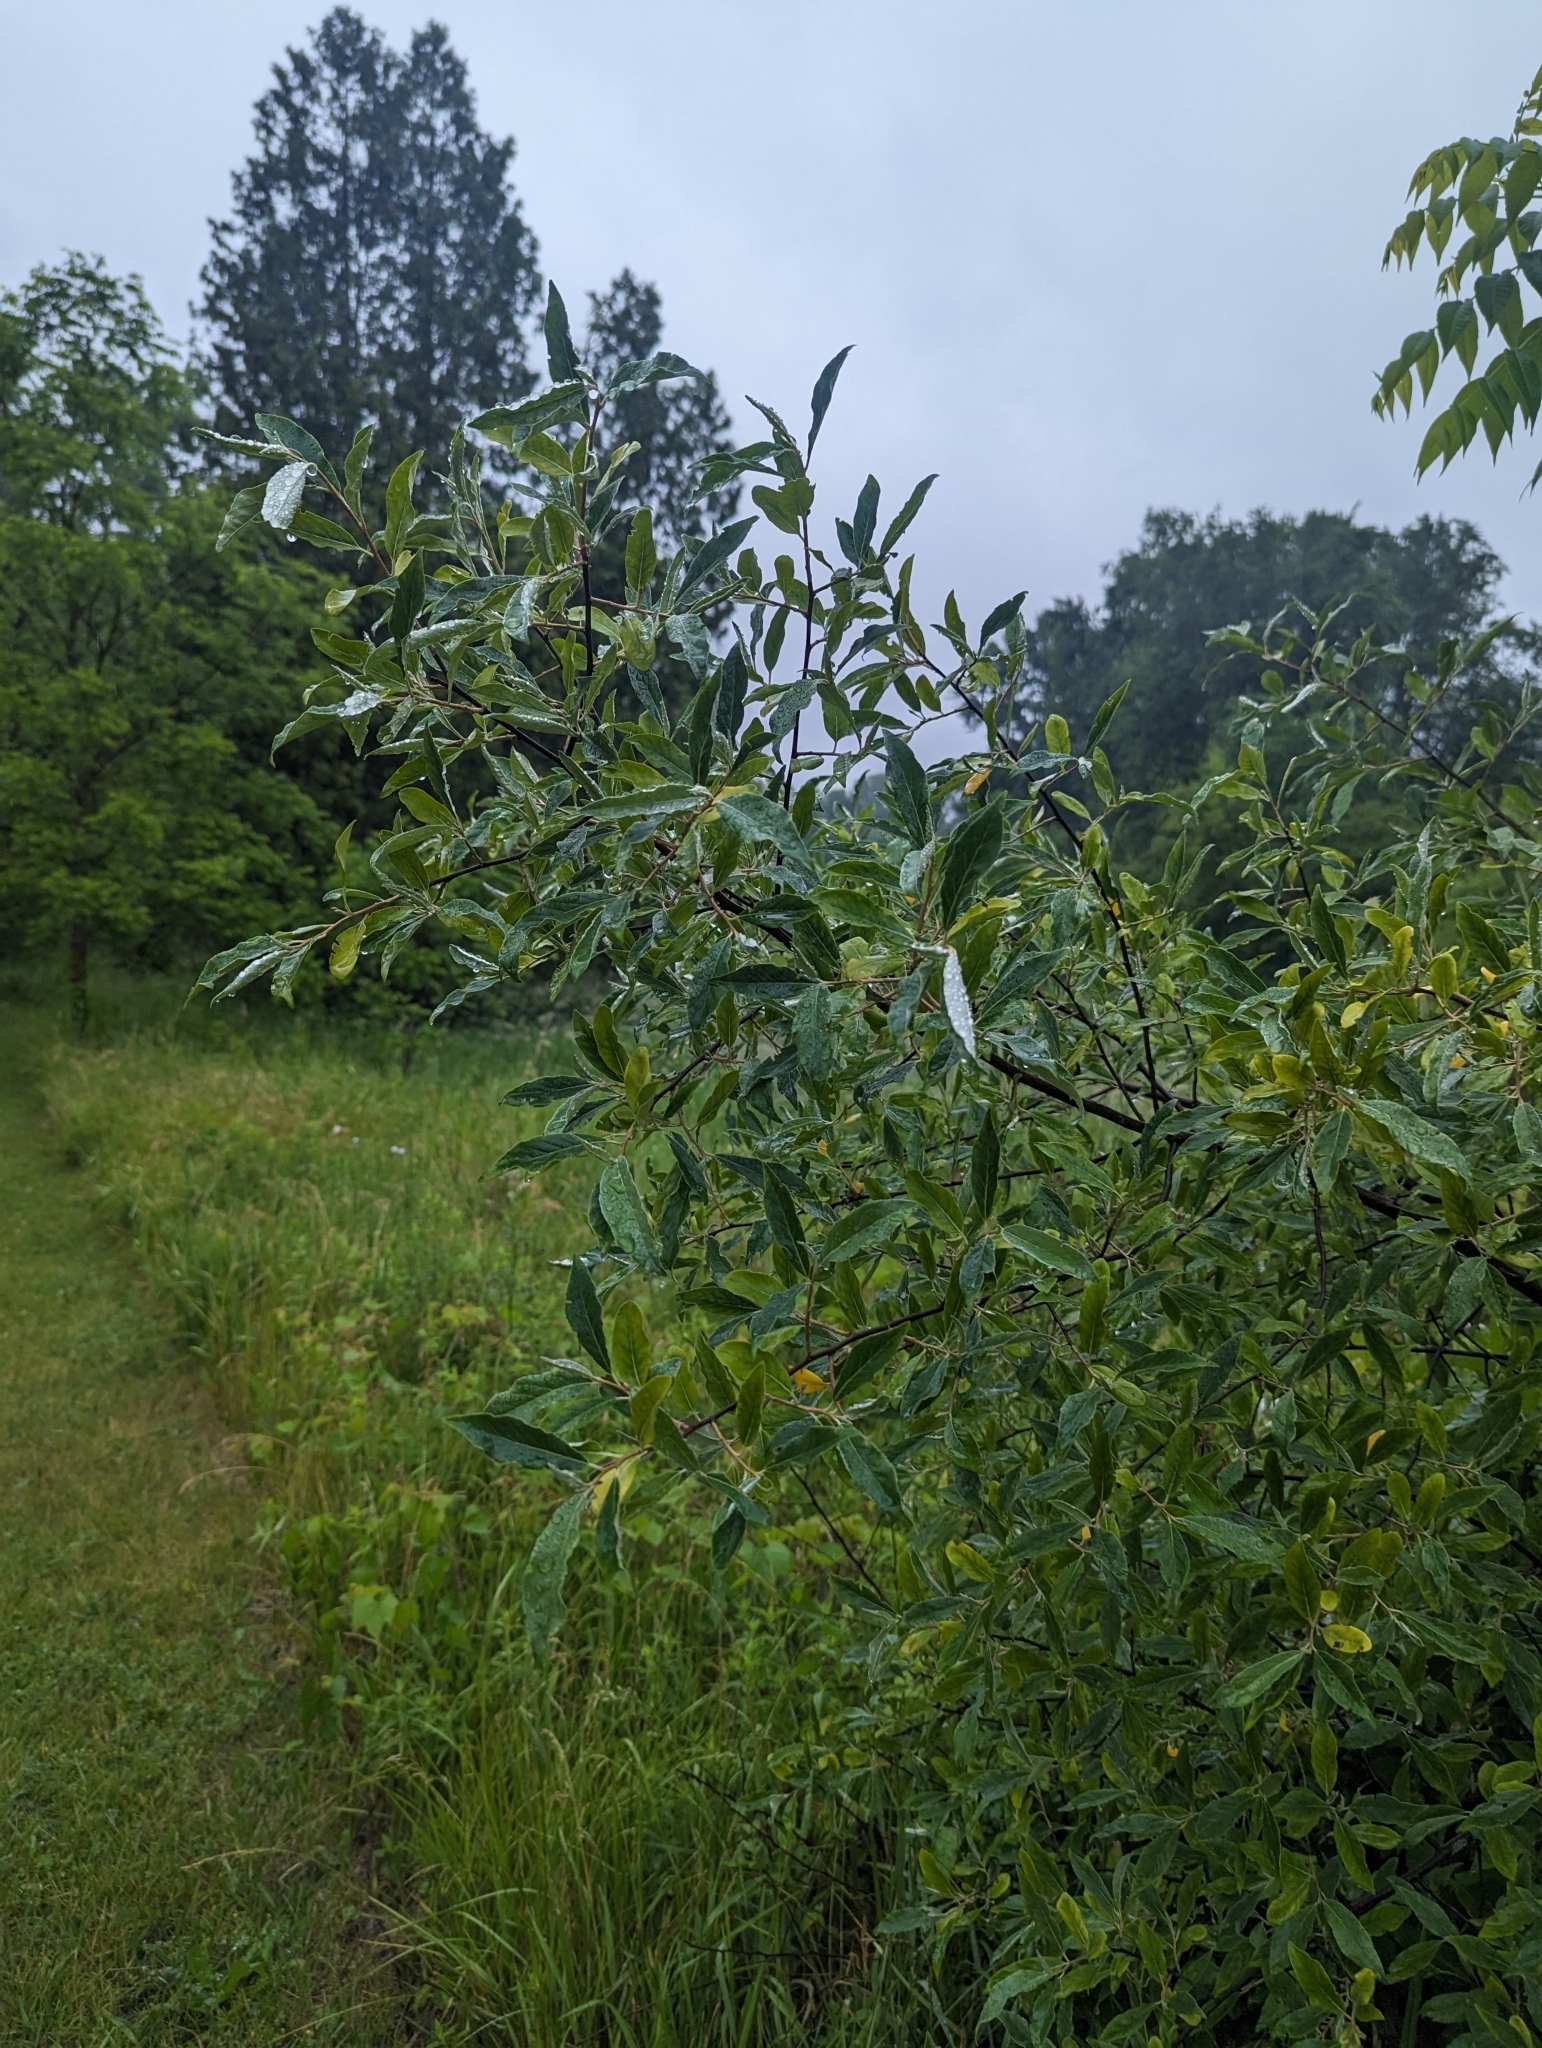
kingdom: Plantae
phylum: Tracheophyta
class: Magnoliopsida
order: Rosales
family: Elaeagnaceae
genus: Elaeagnus
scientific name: Elaeagnus umbellata
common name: Autumn olive
